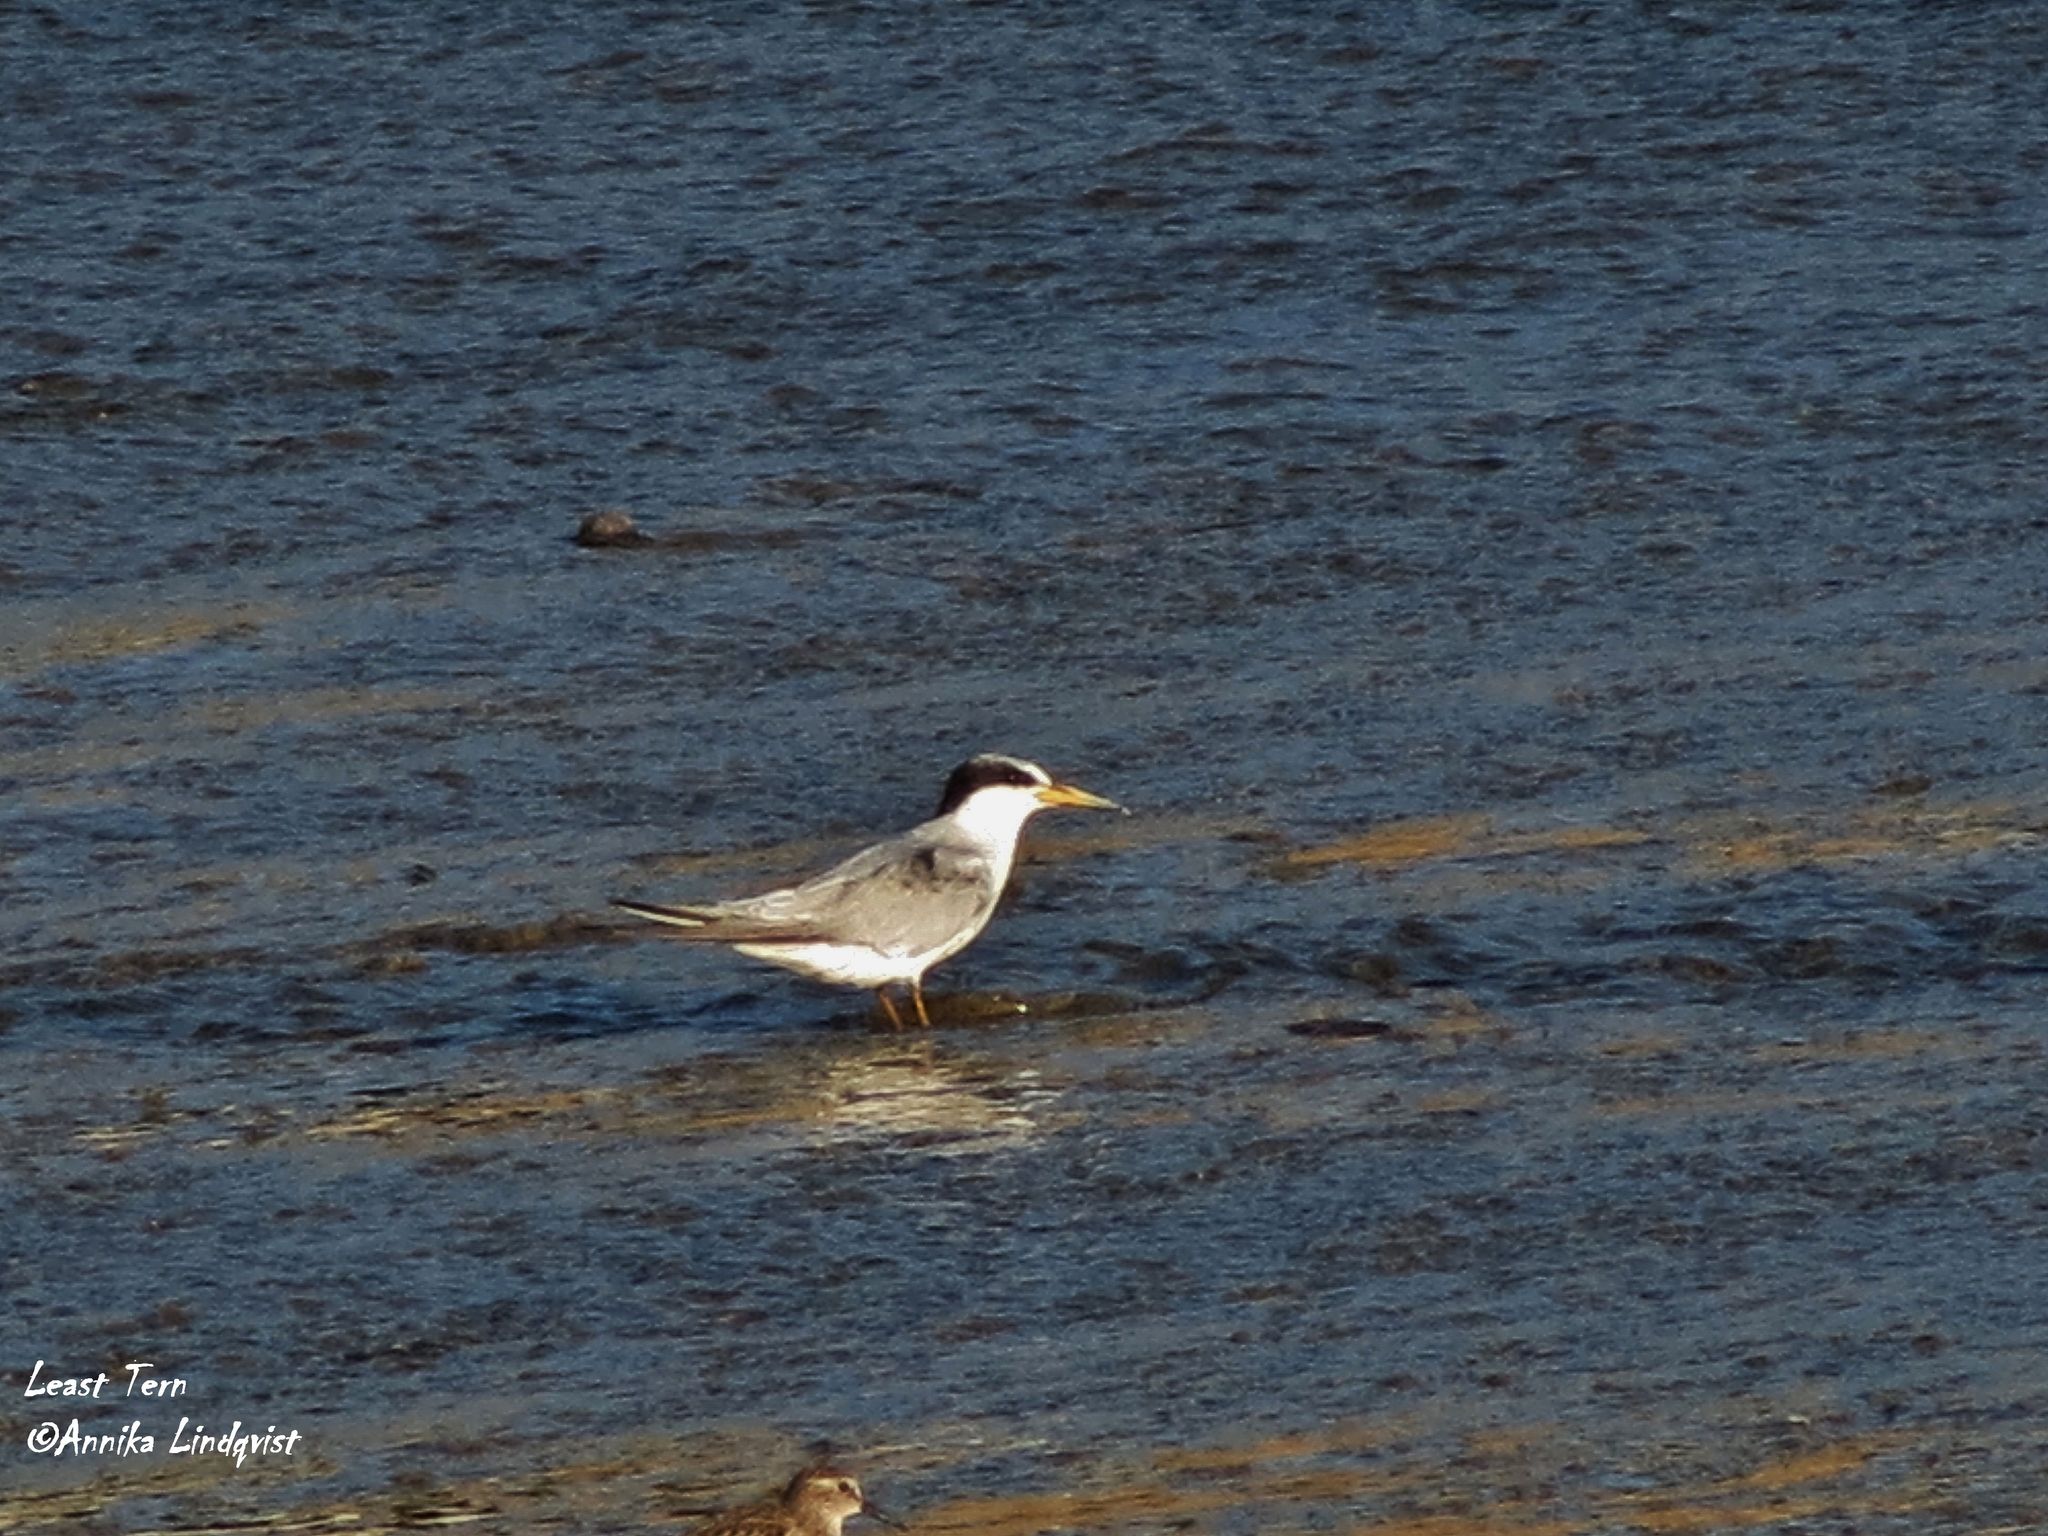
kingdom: Animalia
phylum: Chordata
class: Aves
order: Charadriiformes
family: Laridae
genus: Sternula
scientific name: Sternula antillarum
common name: Least tern
